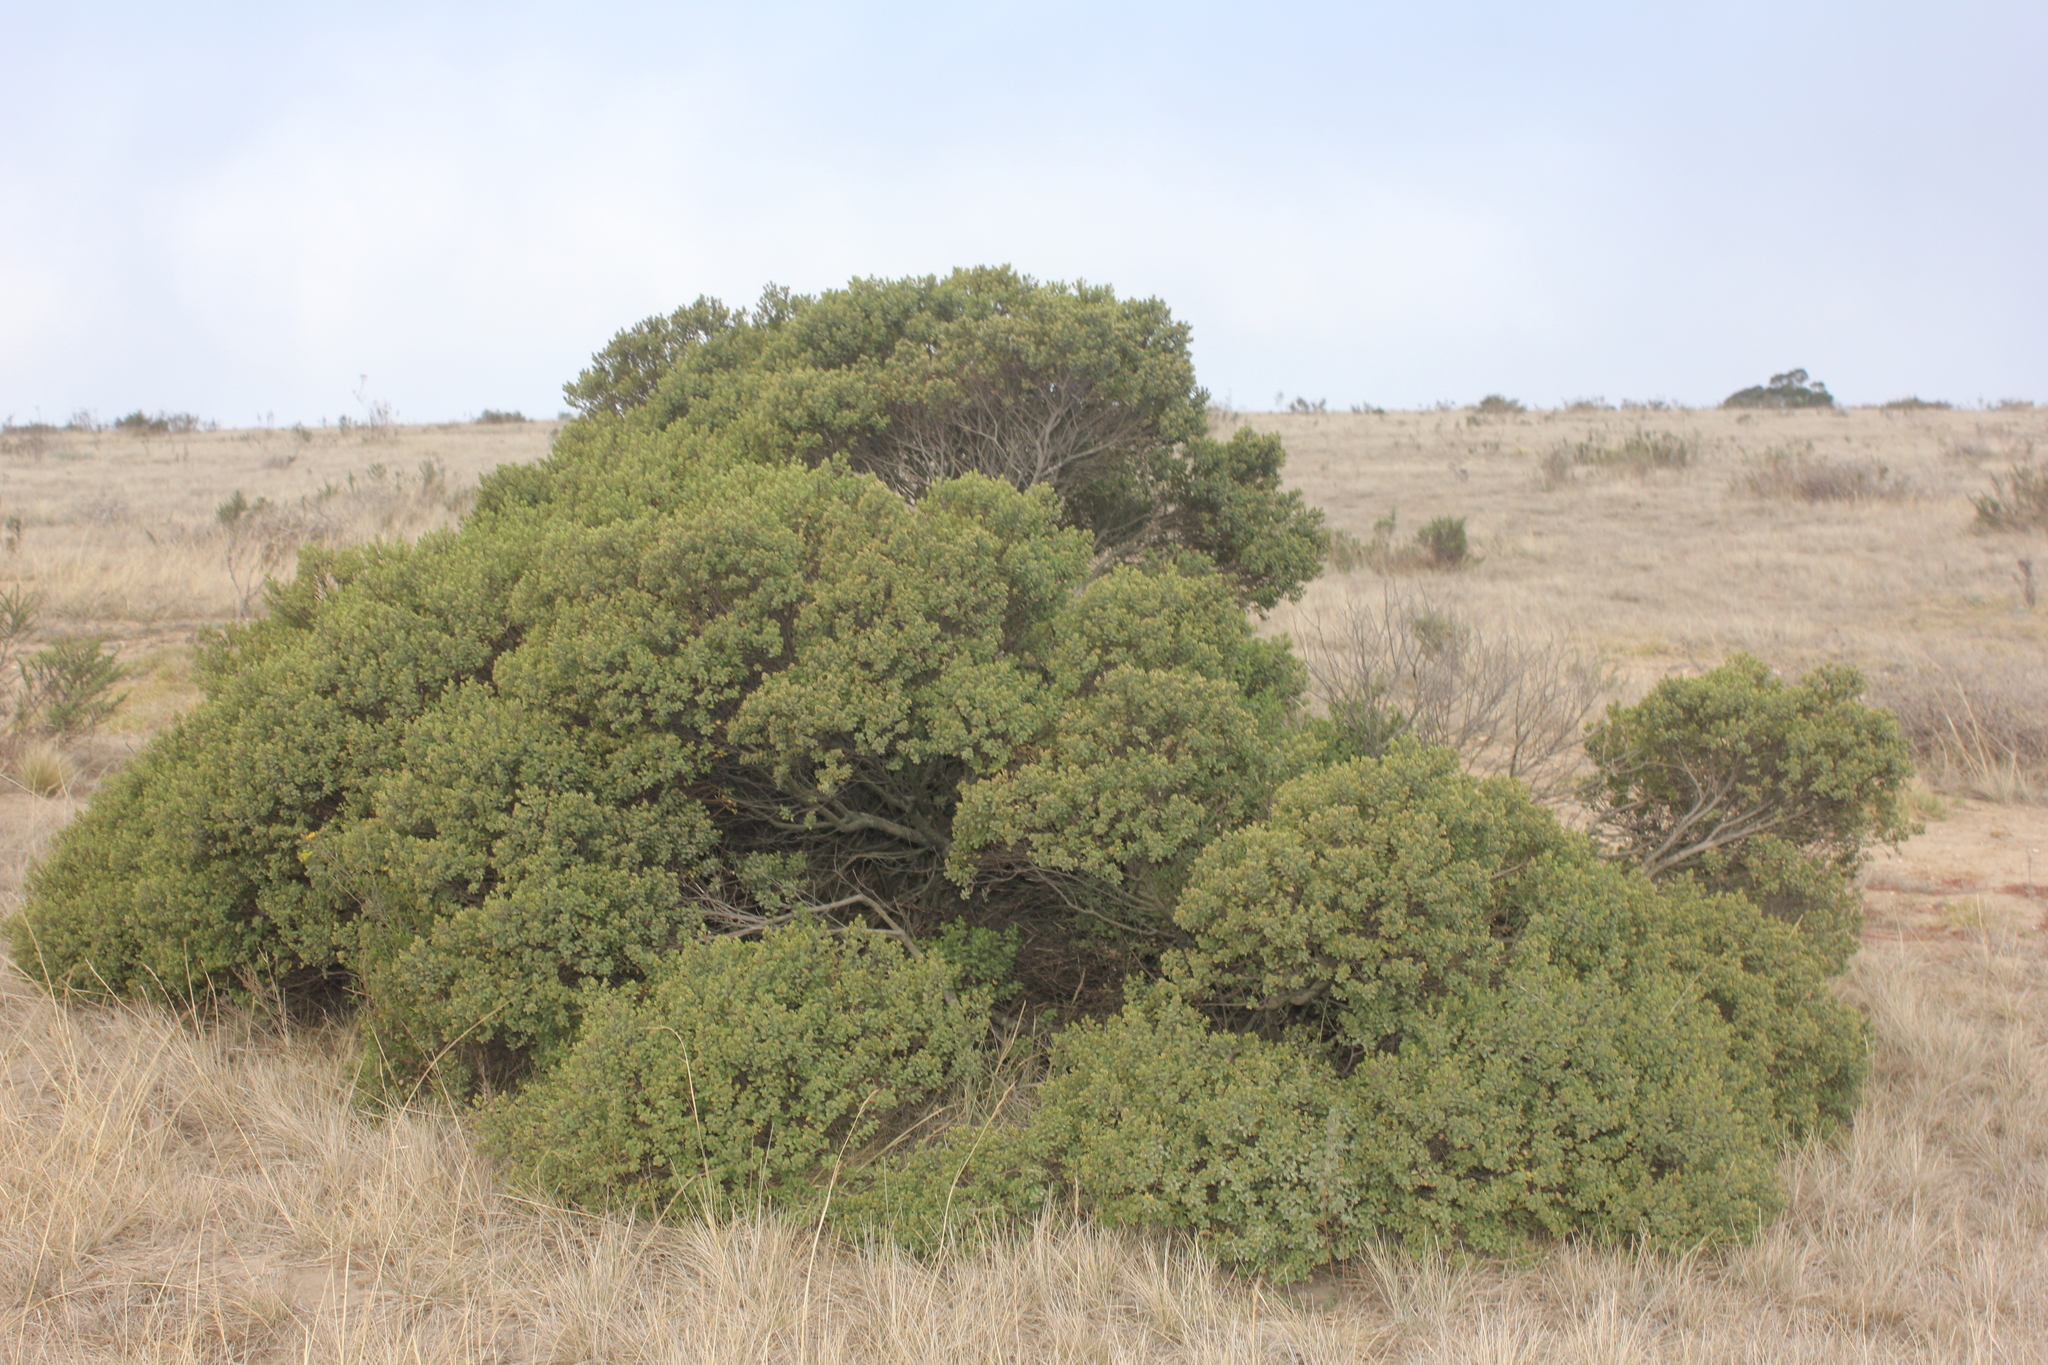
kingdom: Plantae
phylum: Tracheophyta
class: Magnoliopsida
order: Asterales
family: Asteraceae
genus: Baccharis
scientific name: Baccharis conferta
